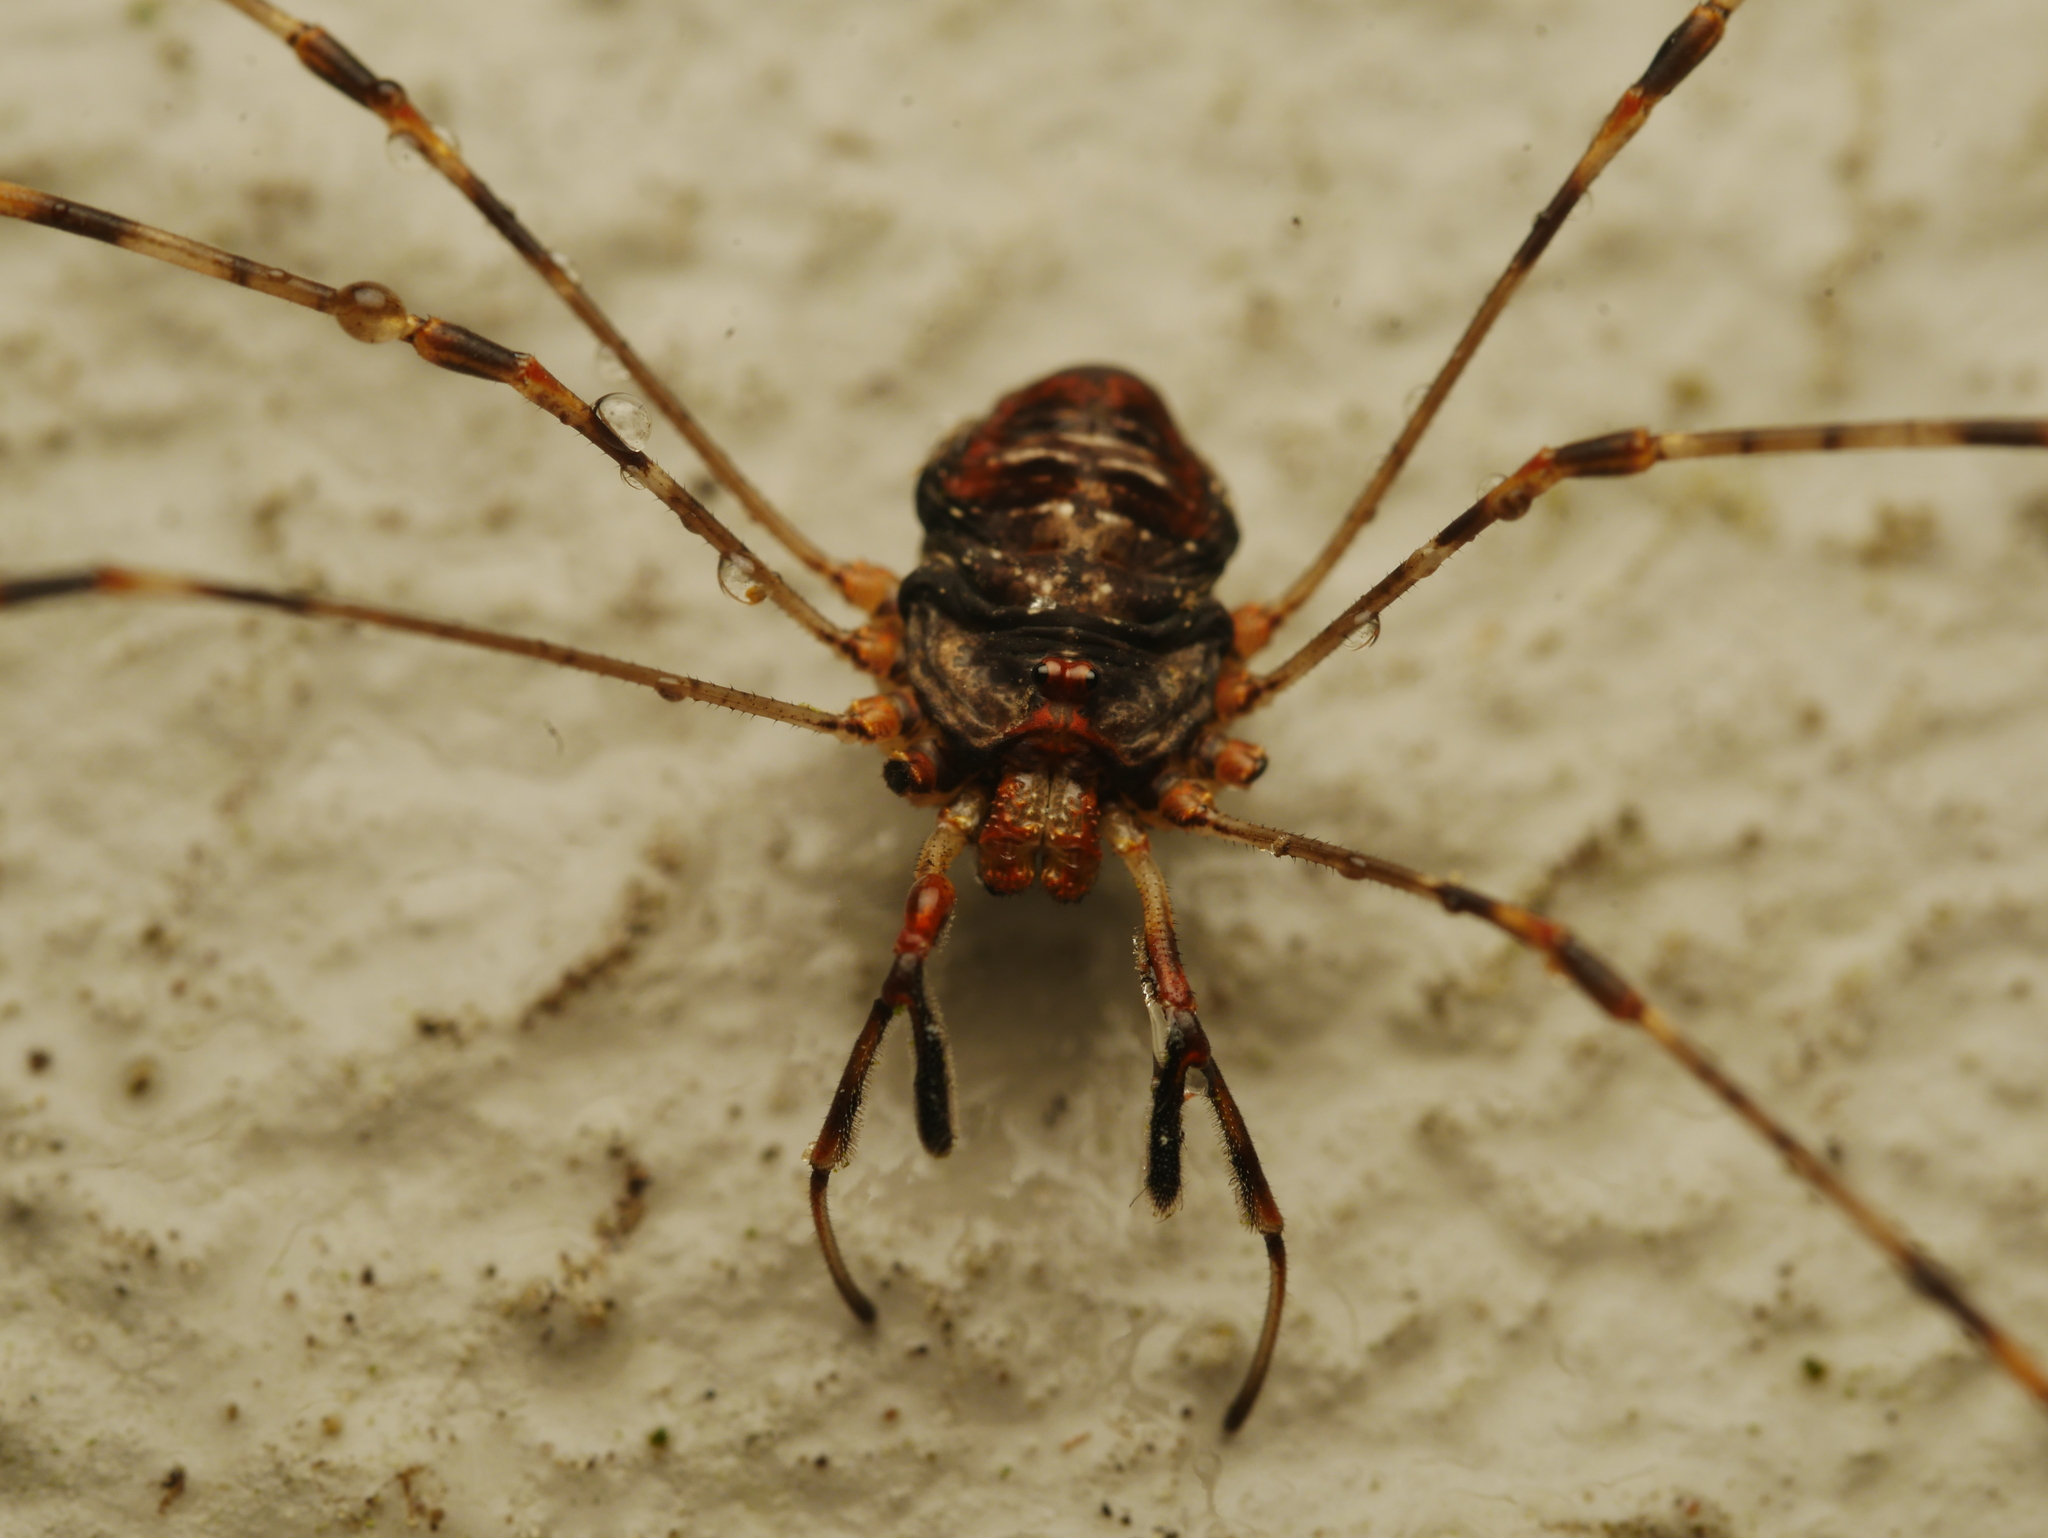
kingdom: Animalia
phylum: Arthropoda
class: Arachnida
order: Opiliones
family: Phalangiidae
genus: Dicranopalpus
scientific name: Dicranopalpus ramosus
